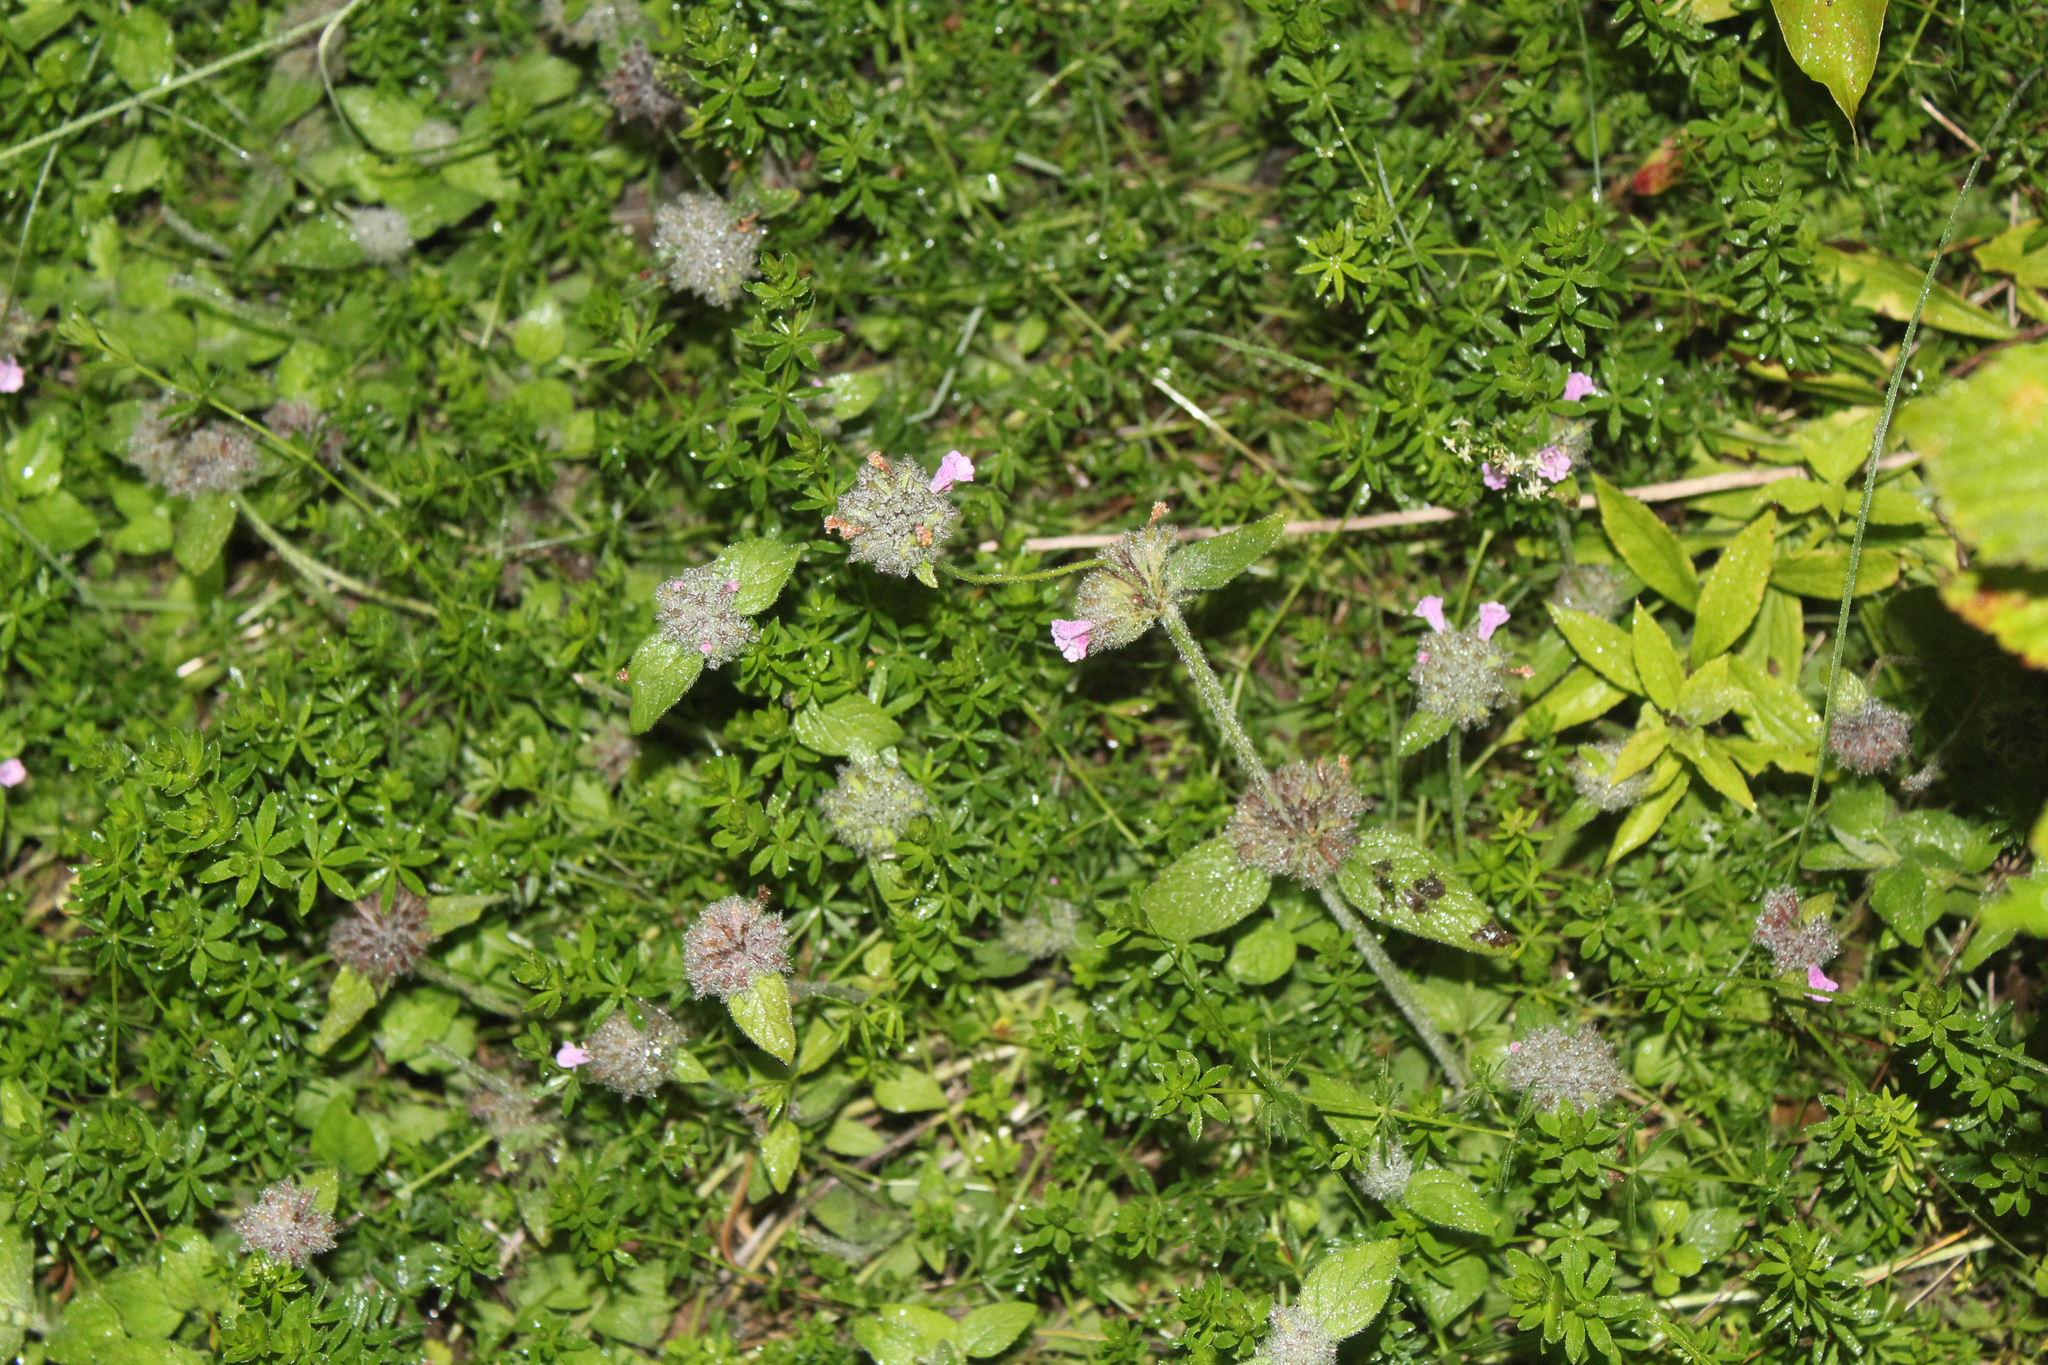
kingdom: Plantae
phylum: Tracheophyta
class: Magnoliopsida
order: Lamiales
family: Lamiaceae
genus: Clinopodium
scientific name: Clinopodium vulgare
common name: Wild basil
